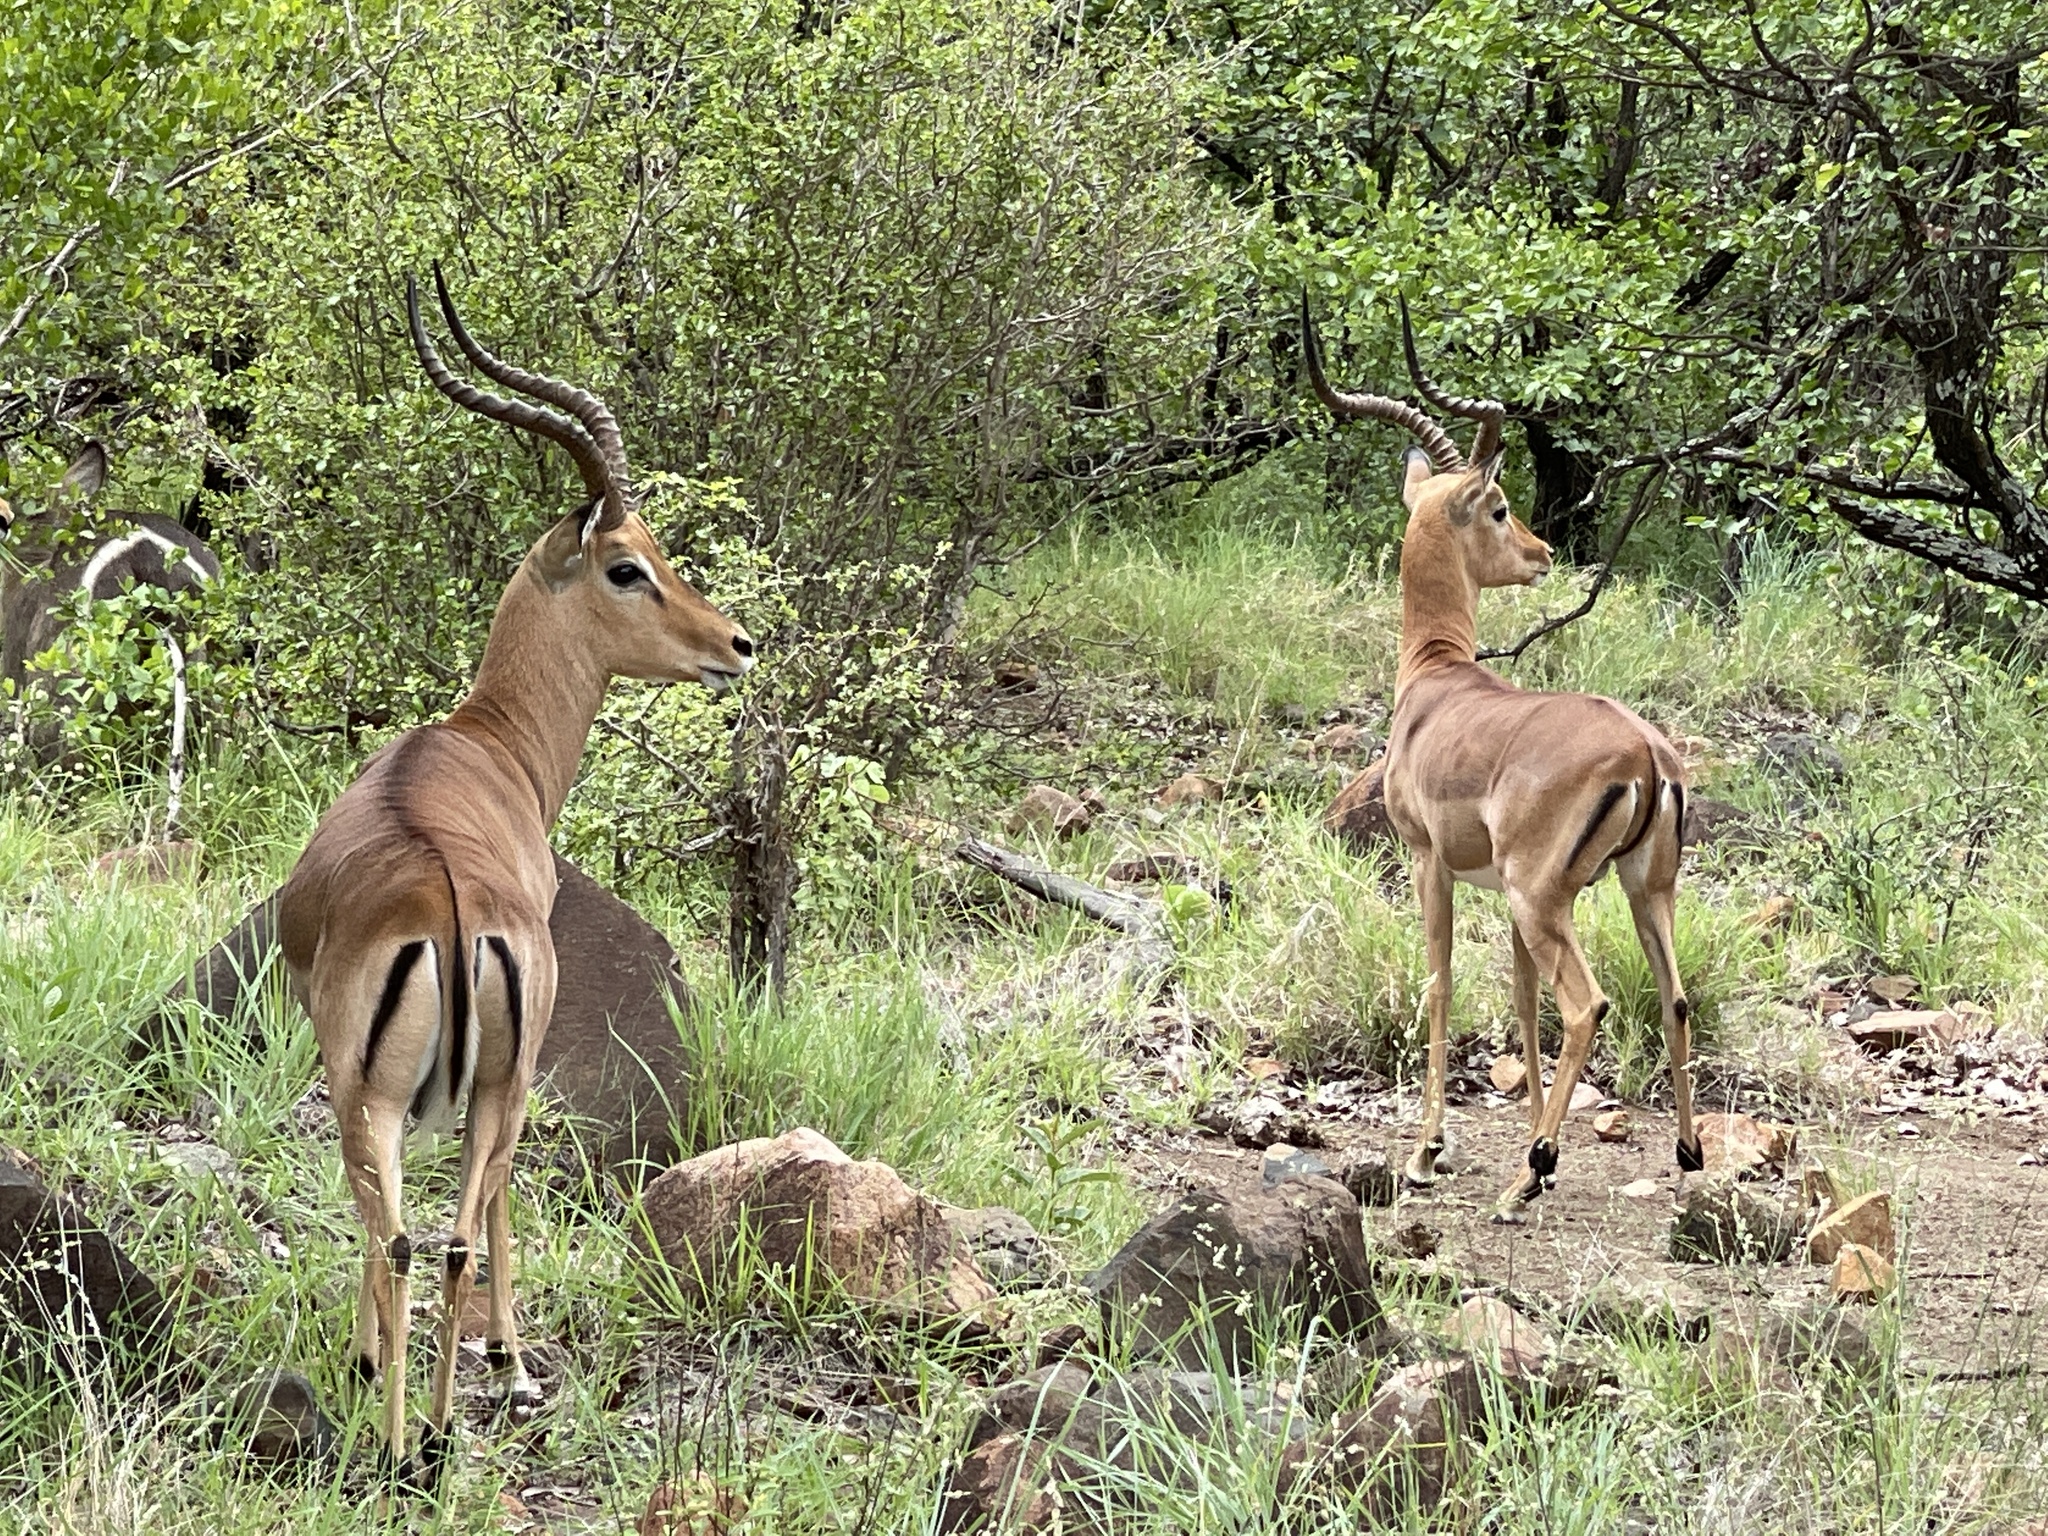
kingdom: Animalia
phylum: Chordata
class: Mammalia
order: Artiodactyla
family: Bovidae
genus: Aepyceros
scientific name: Aepyceros melampus
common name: Impala
